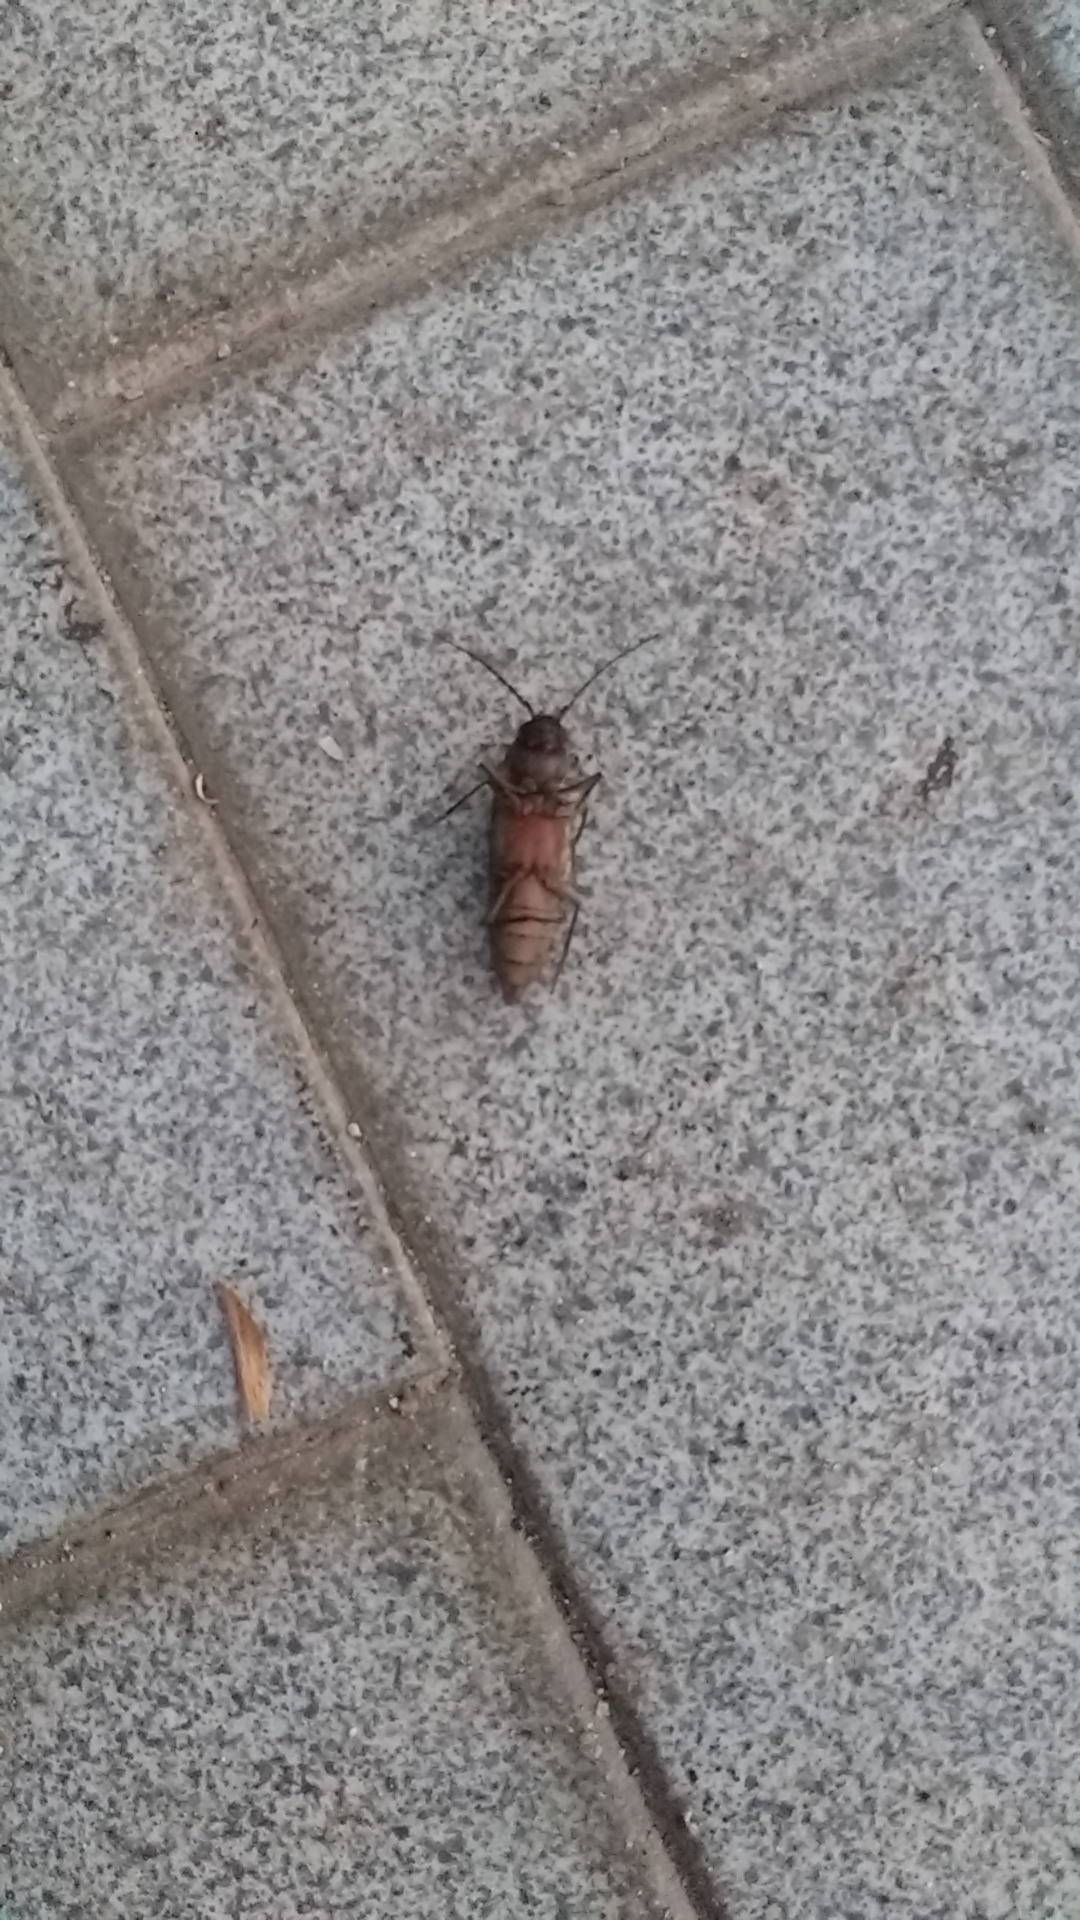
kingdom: Animalia
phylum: Arthropoda
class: Insecta
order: Coleoptera
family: Cerambycidae
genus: Arhopalus
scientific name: Arhopalus ferus
